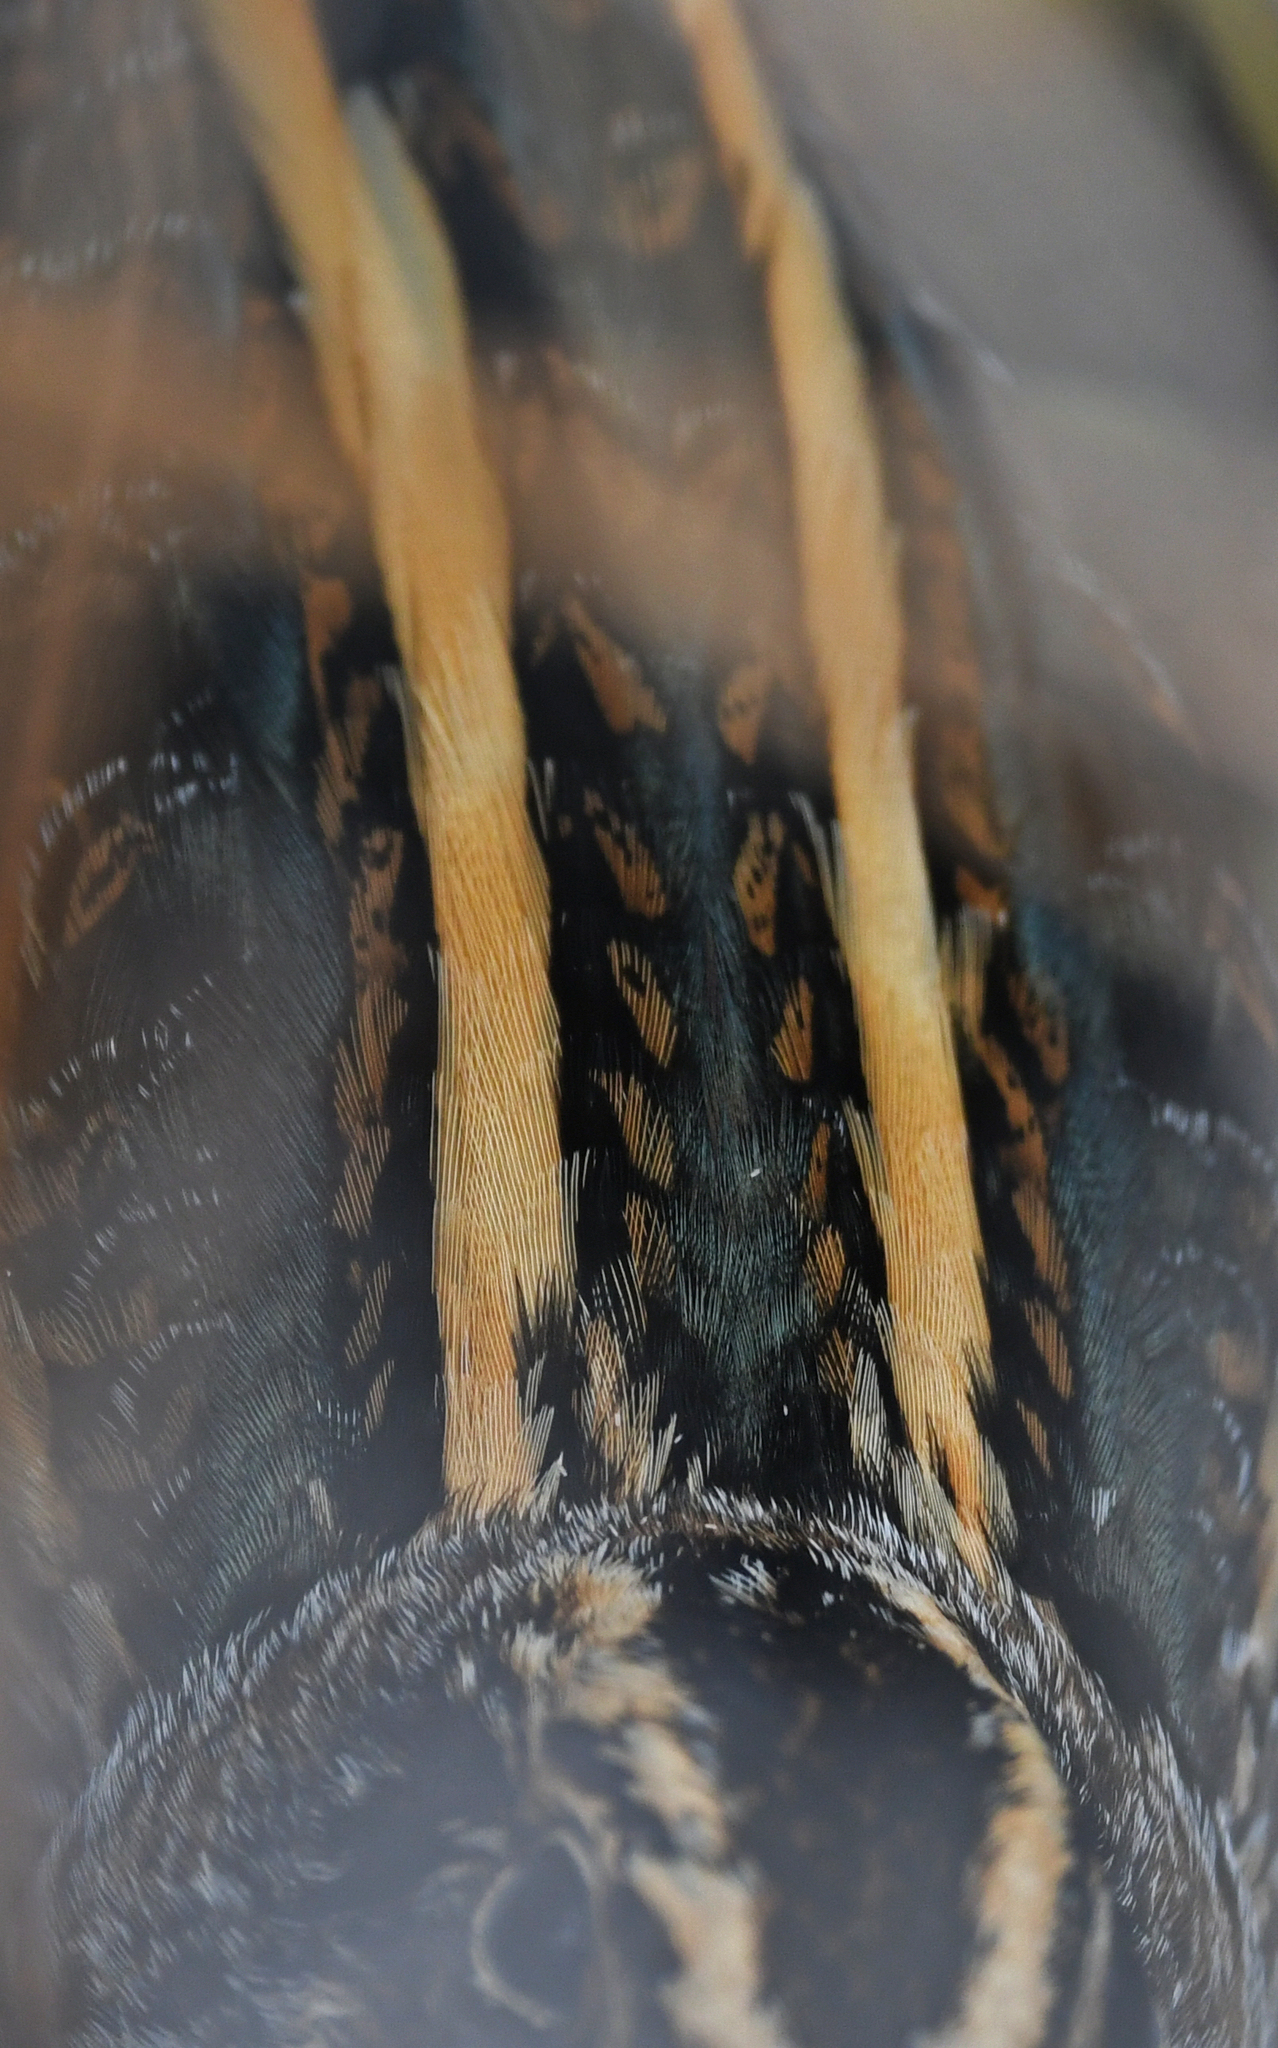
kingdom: Animalia
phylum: Chordata
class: Aves
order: Charadriiformes
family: Scolopacidae
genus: Lymnocryptes
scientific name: Lymnocryptes minimus
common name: Jack snipe
